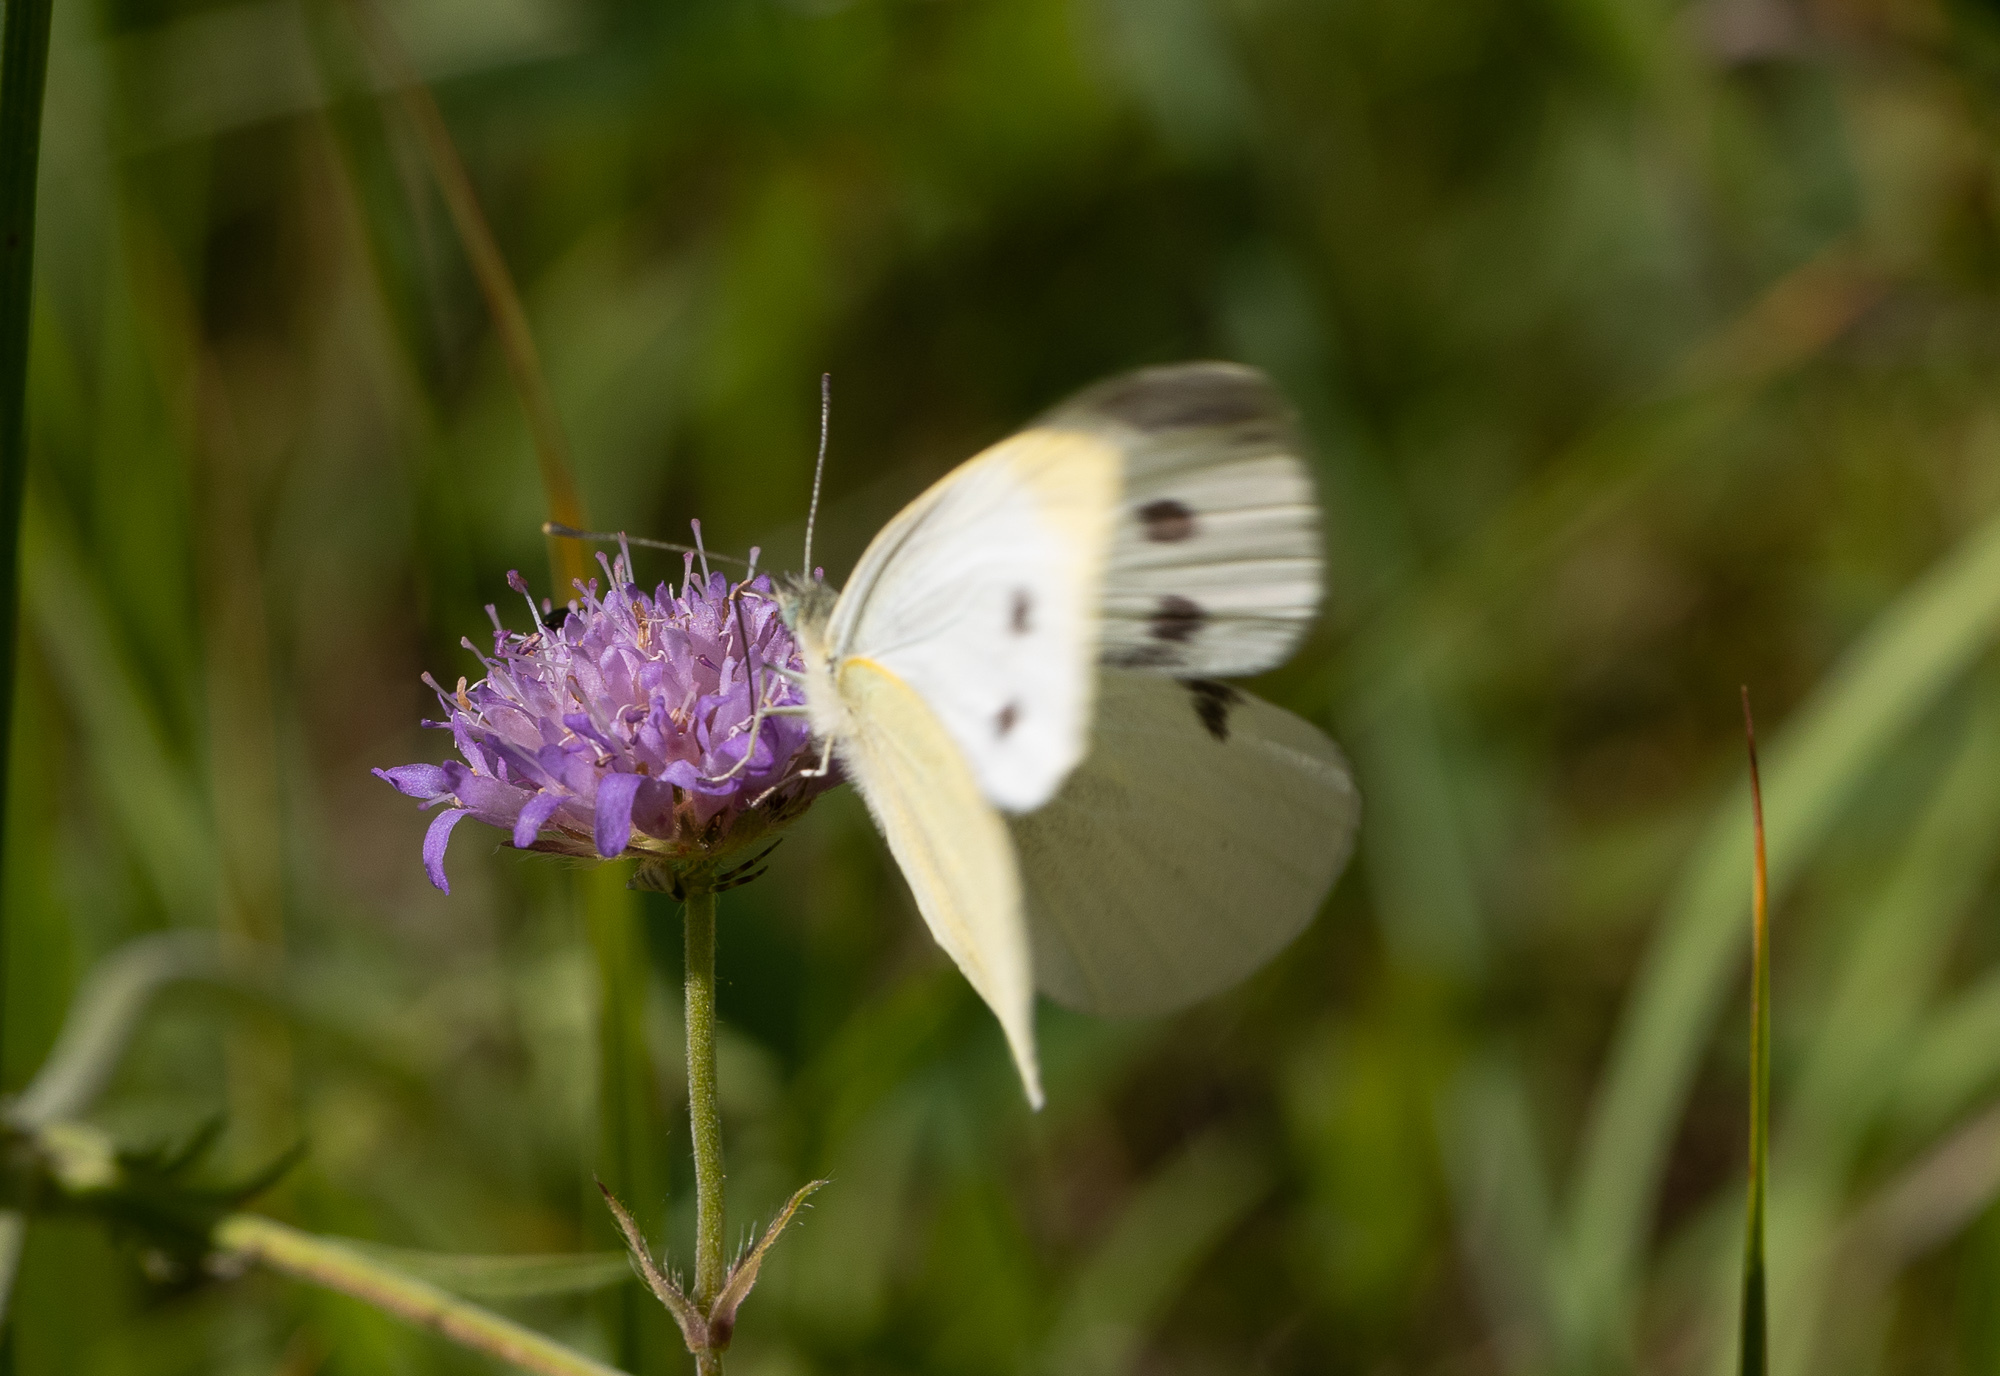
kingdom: Animalia
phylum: Arthropoda
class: Insecta
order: Lepidoptera
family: Pieridae
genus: Pieris
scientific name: Pieris rapae
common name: Small white
